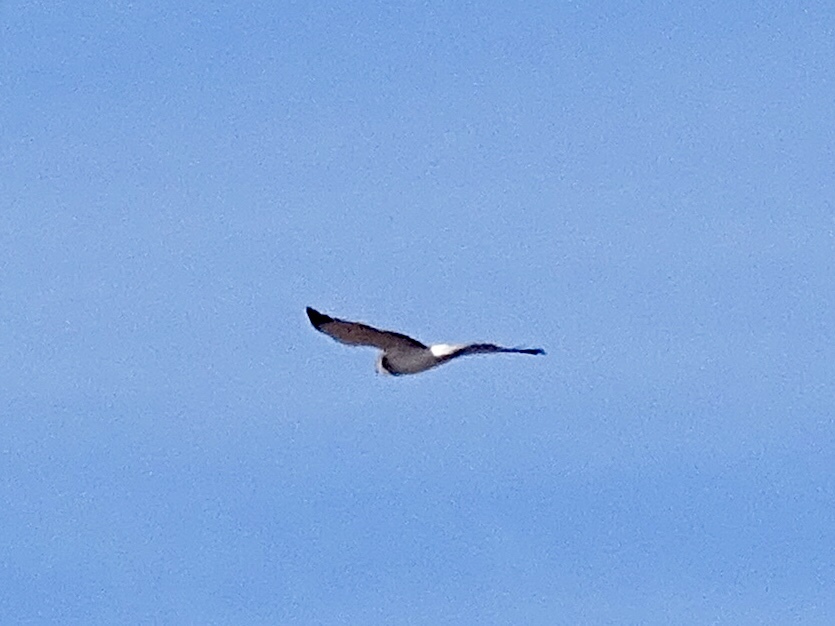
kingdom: Animalia
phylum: Chordata
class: Aves
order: Accipitriformes
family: Accipitridae
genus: Circus
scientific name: Circus cyaneus
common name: Hen harrier
